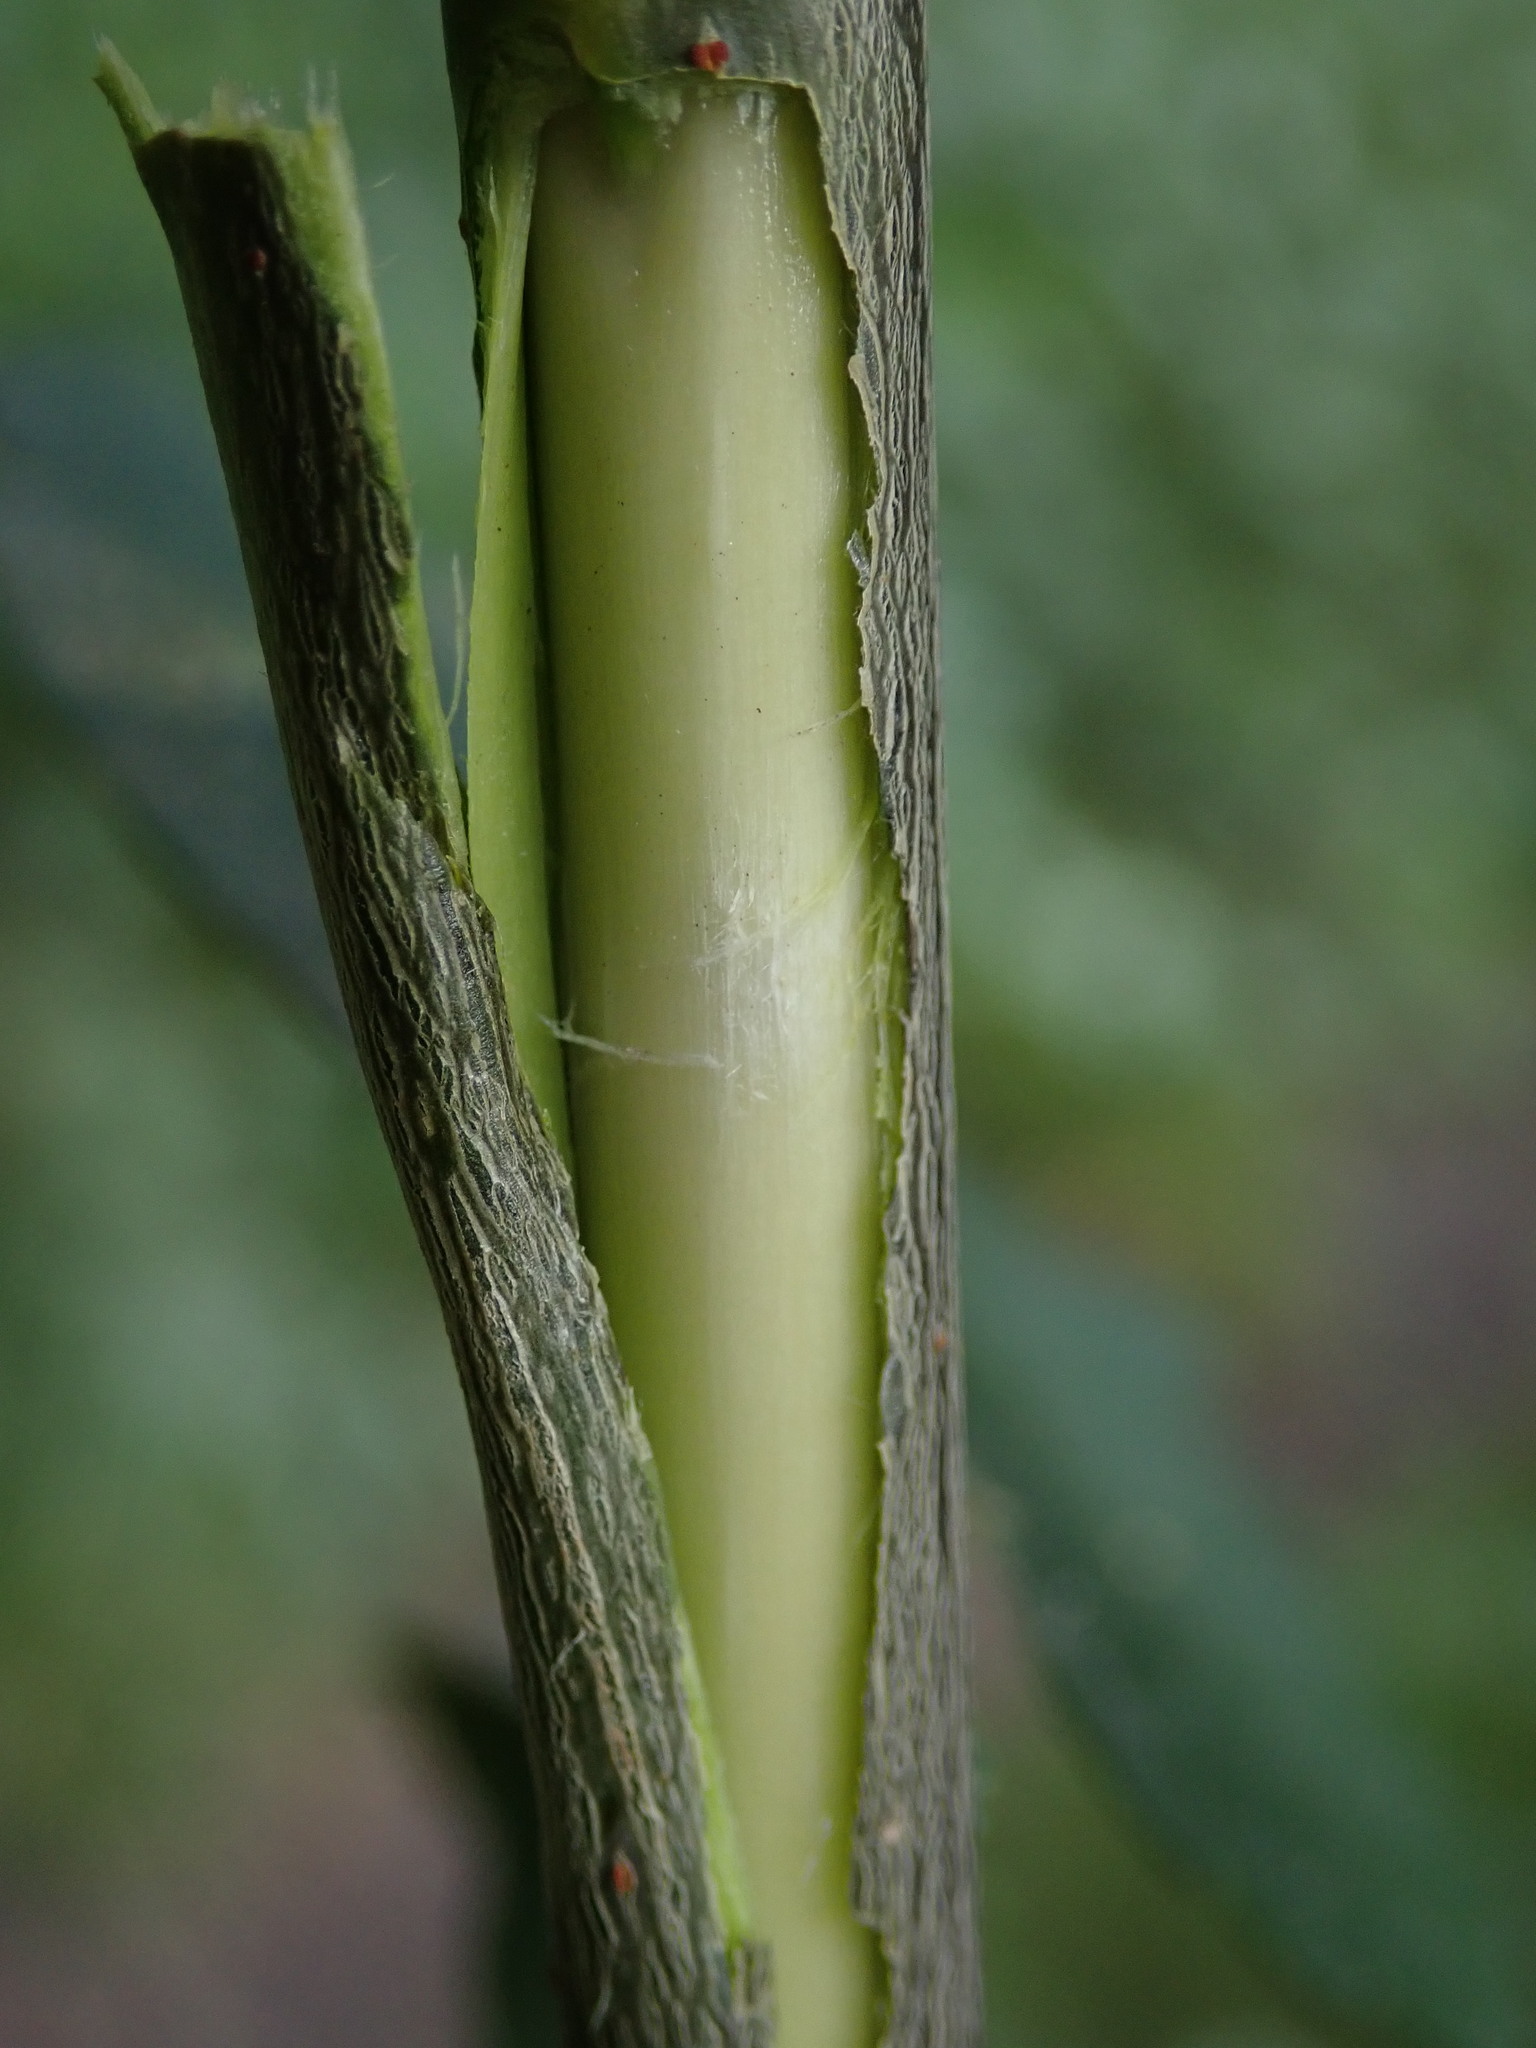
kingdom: Plantae
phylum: Tracheophyta
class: Magnoliopsida
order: Malpighiales
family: Salicaceae
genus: Salix
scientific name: Salix caprea
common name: Goat willow
